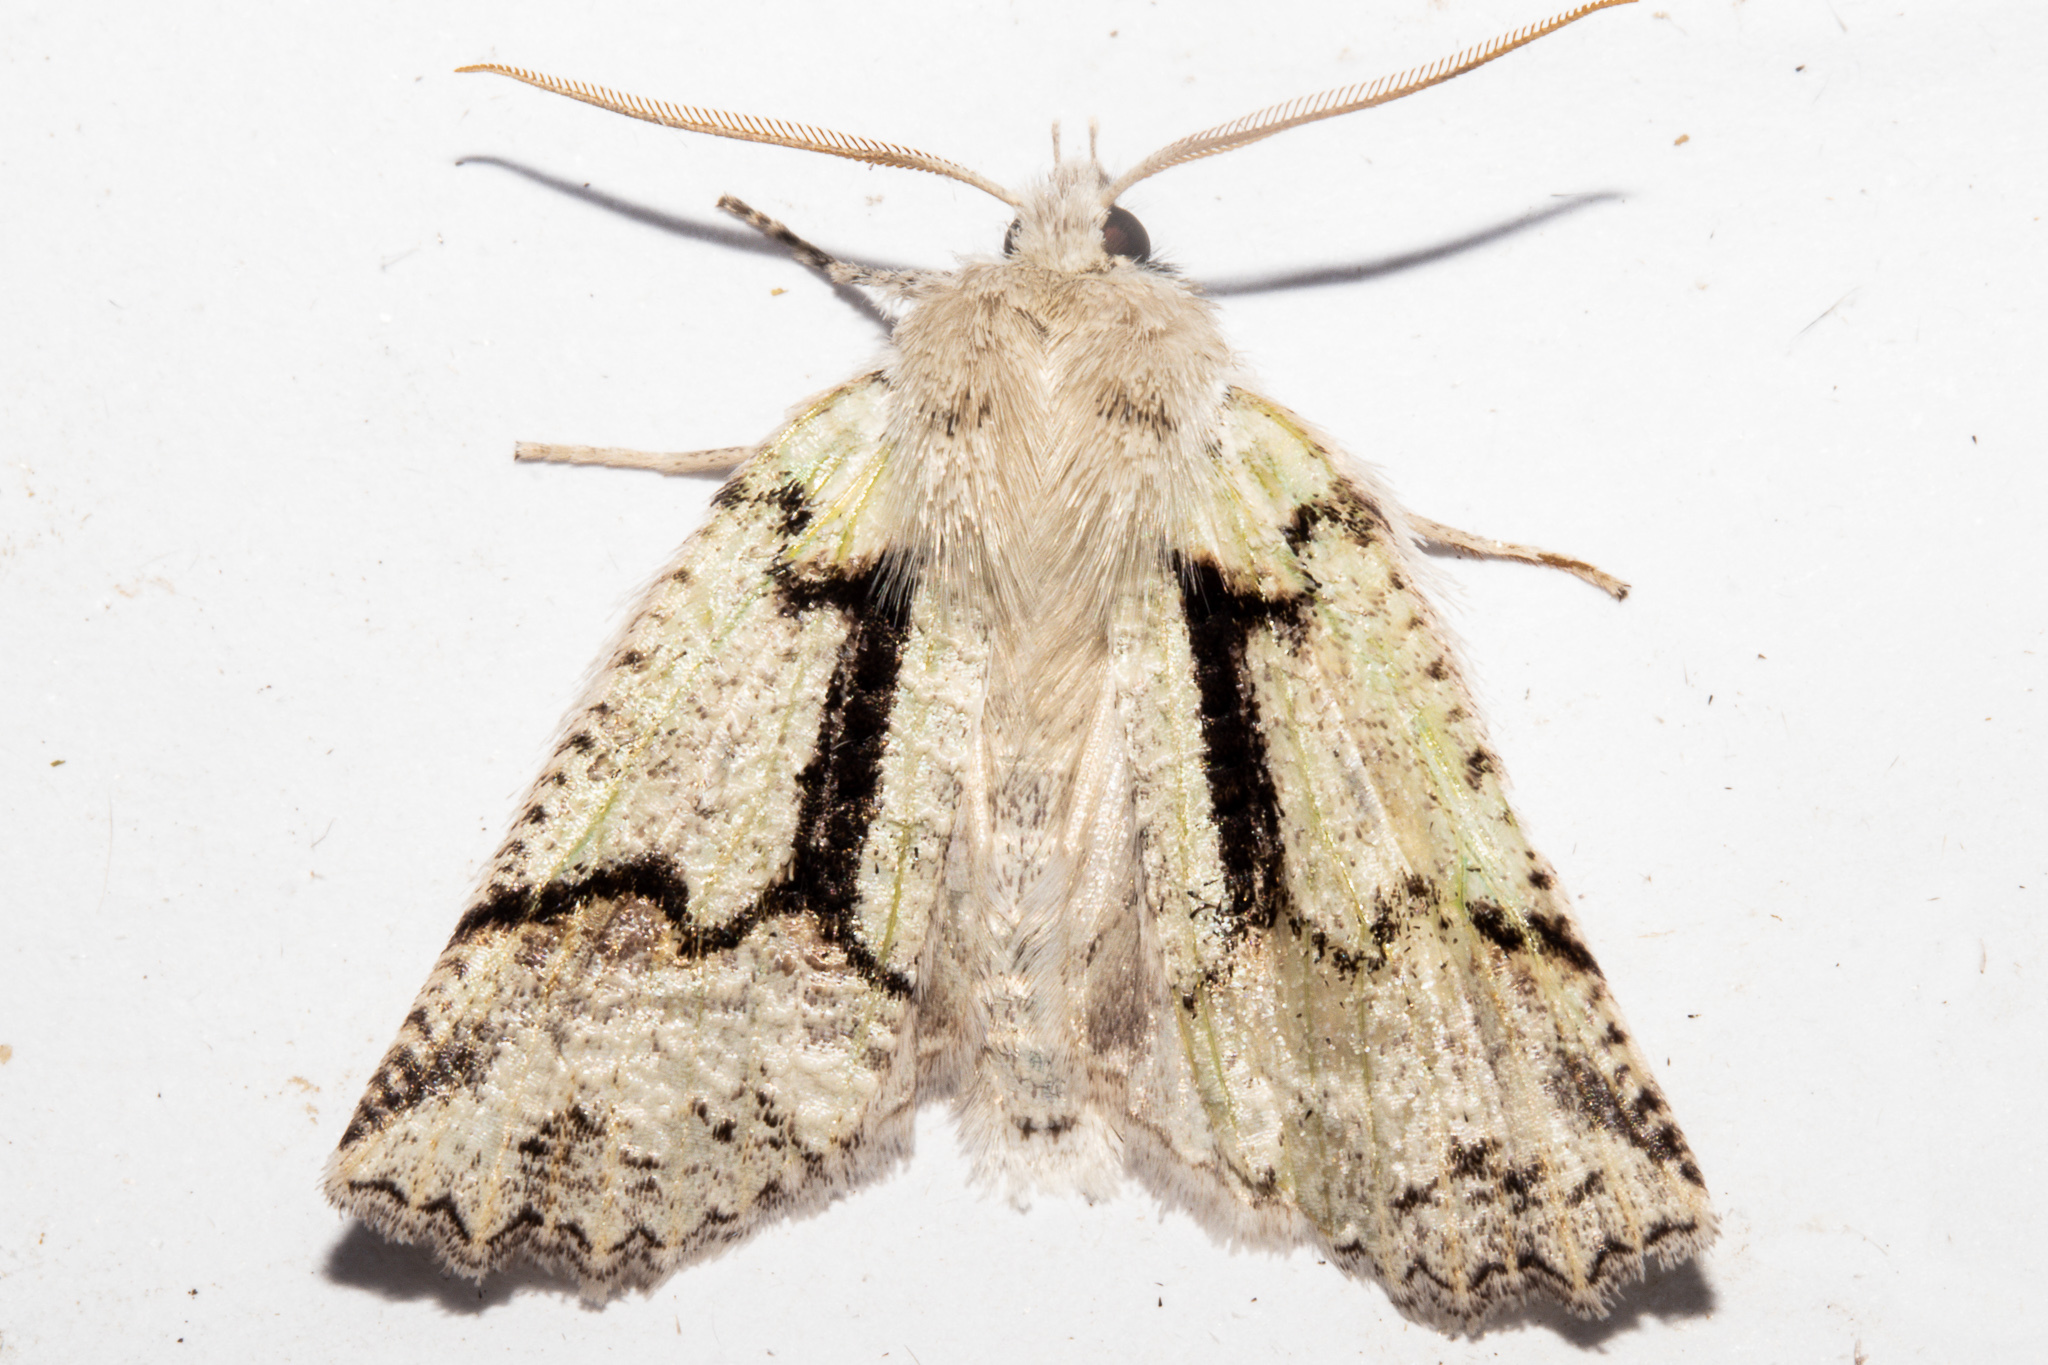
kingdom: Animalia
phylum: Arthropoda
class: Insecta
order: Lepidoptera
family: Geometridae
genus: Declana
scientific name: Declana floccosa
